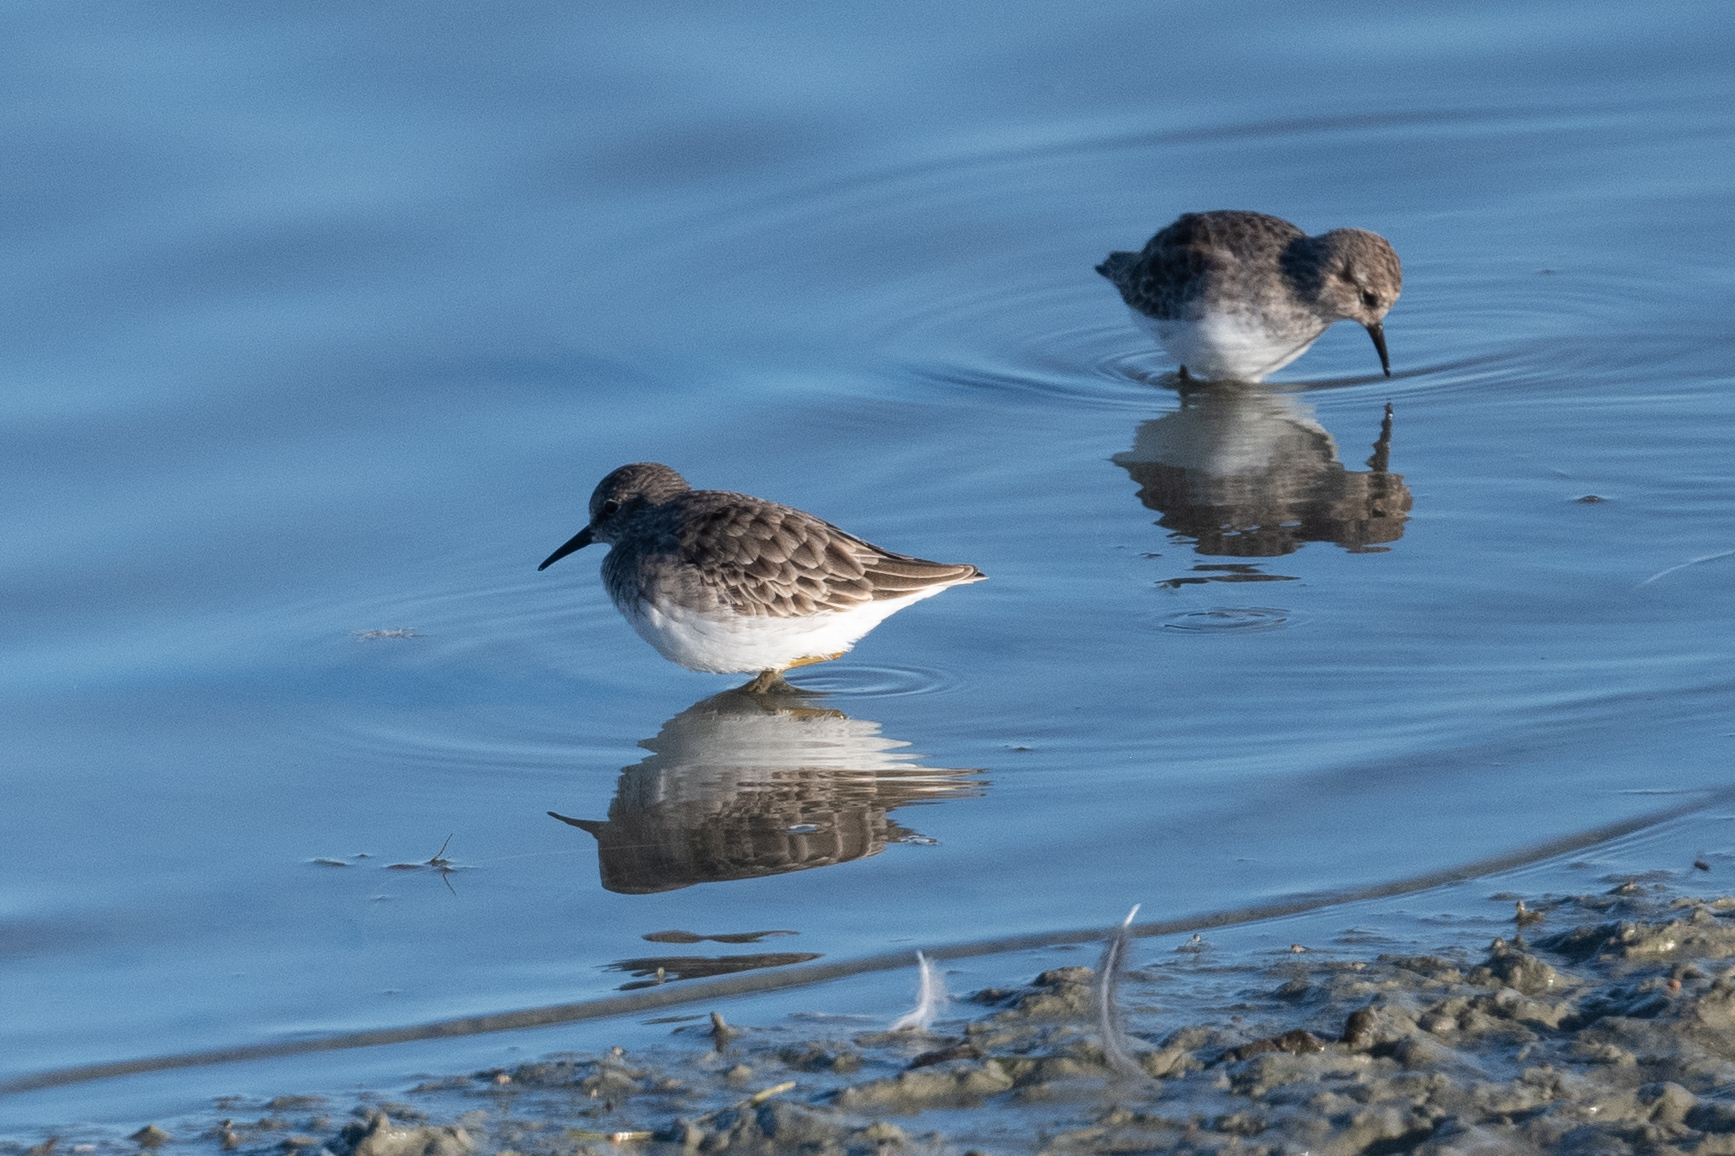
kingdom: Animalia
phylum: Chordata
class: Aves
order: Charadriiformes
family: Scolopacidae
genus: Calidris
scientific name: Calidris minutilla
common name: Least sandpiper
